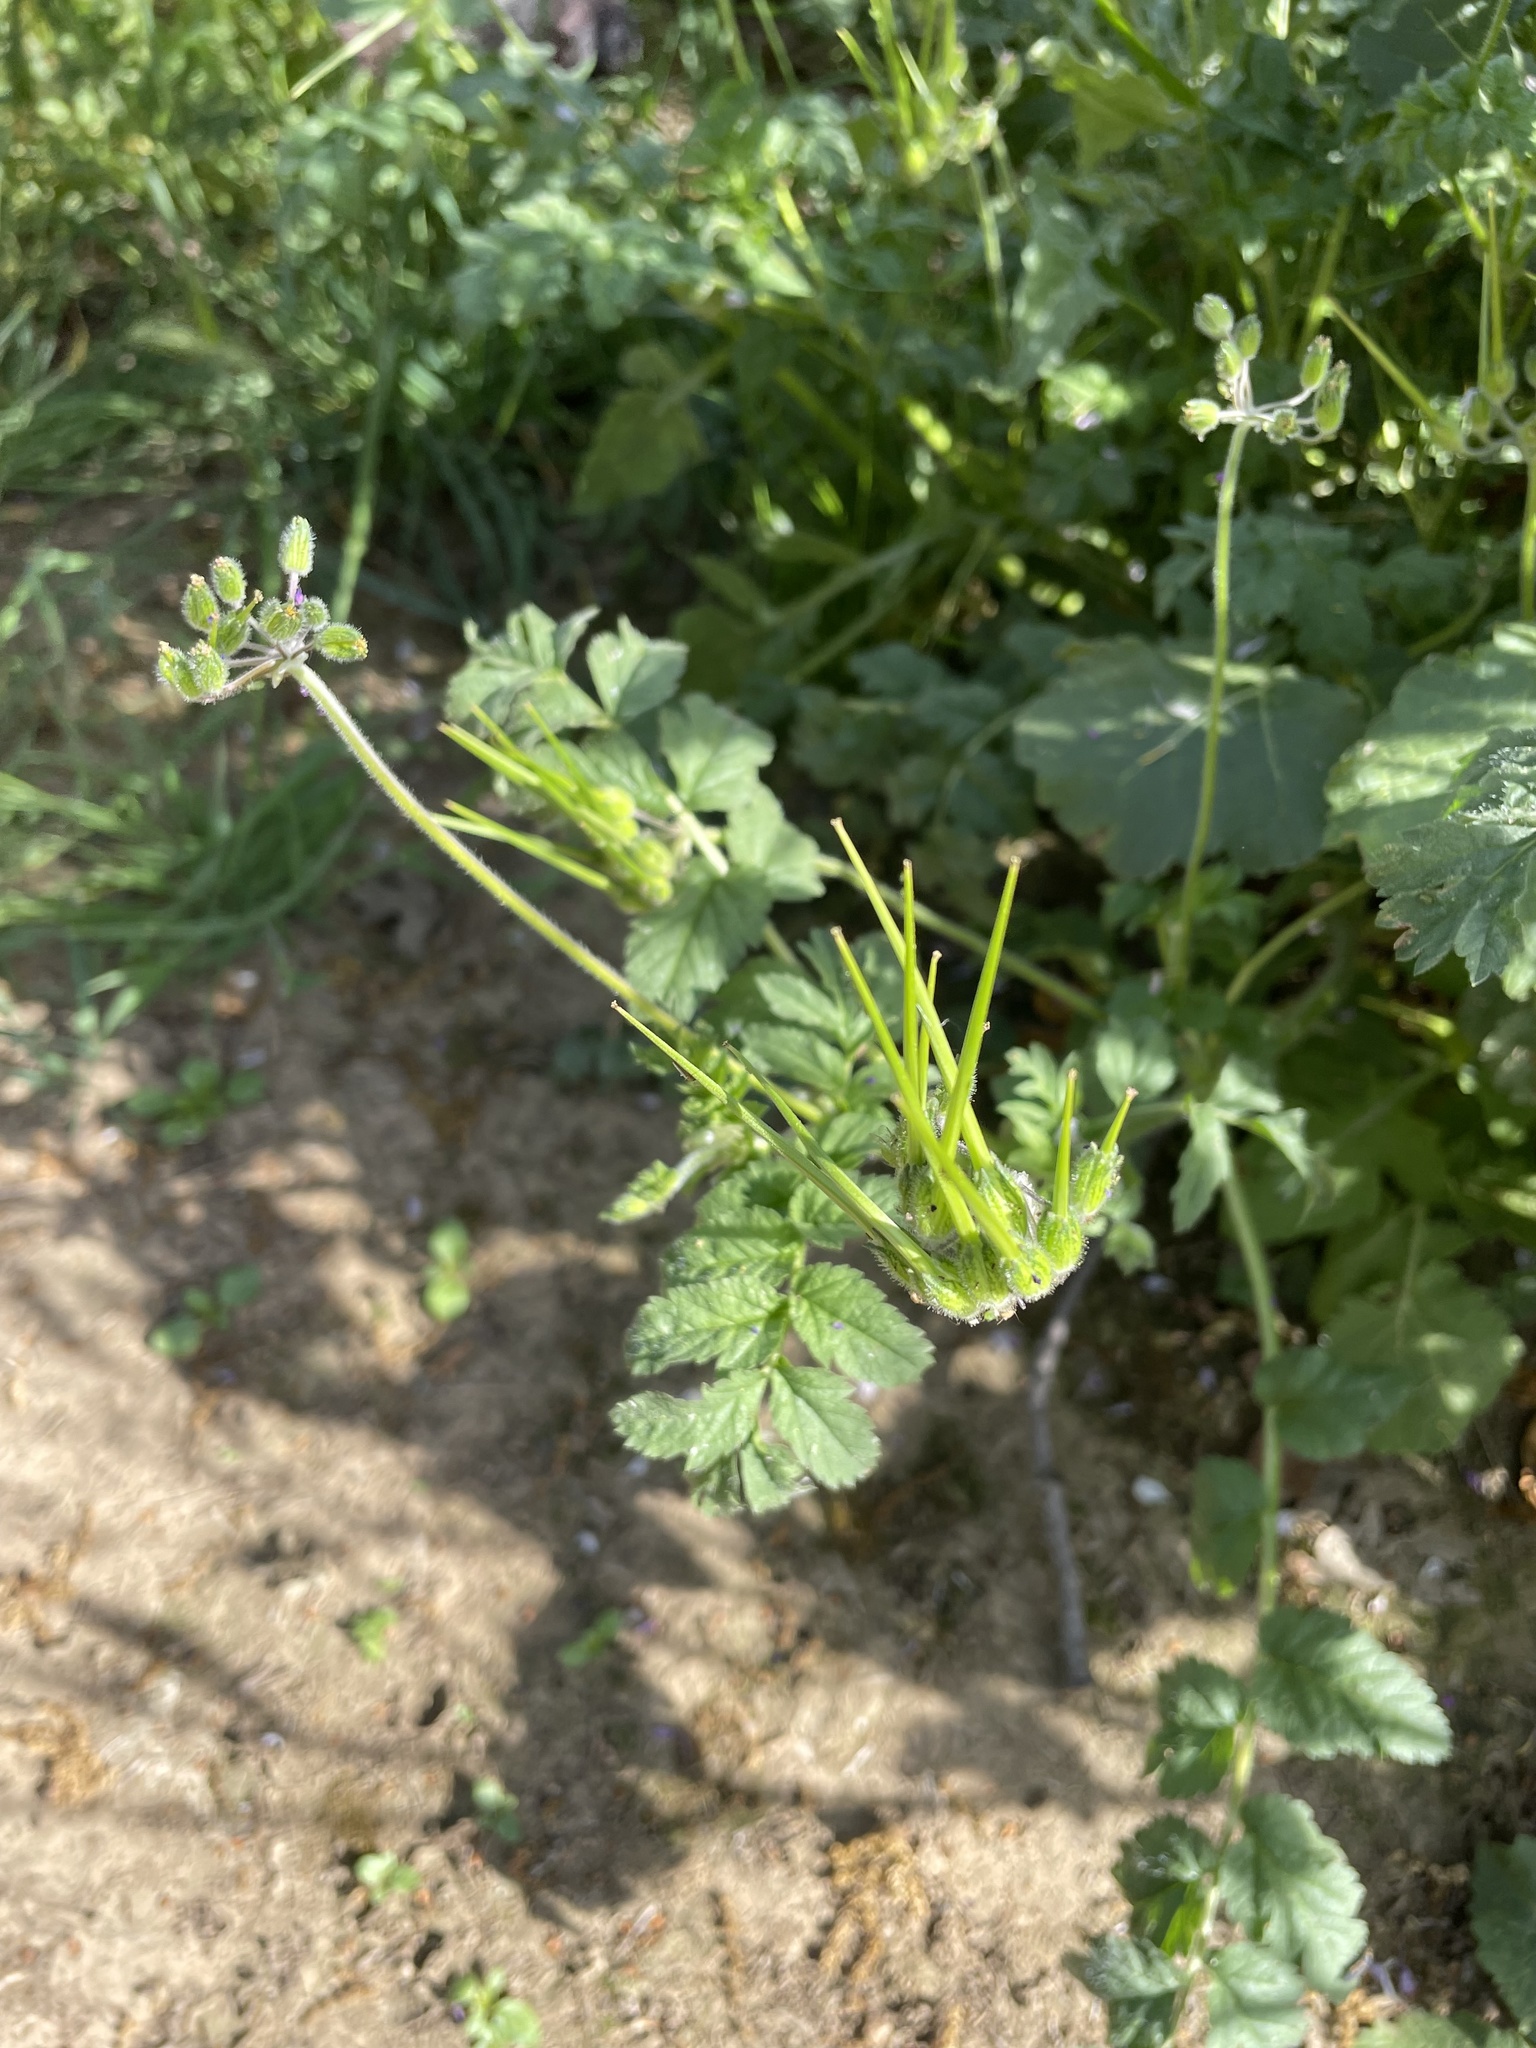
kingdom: Plantae
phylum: Tracheophyta
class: Magnoliopsida
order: Geraniales
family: Geraniaceae
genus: Erodium
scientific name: Erodium moschatum
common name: Musk stork's-bill
